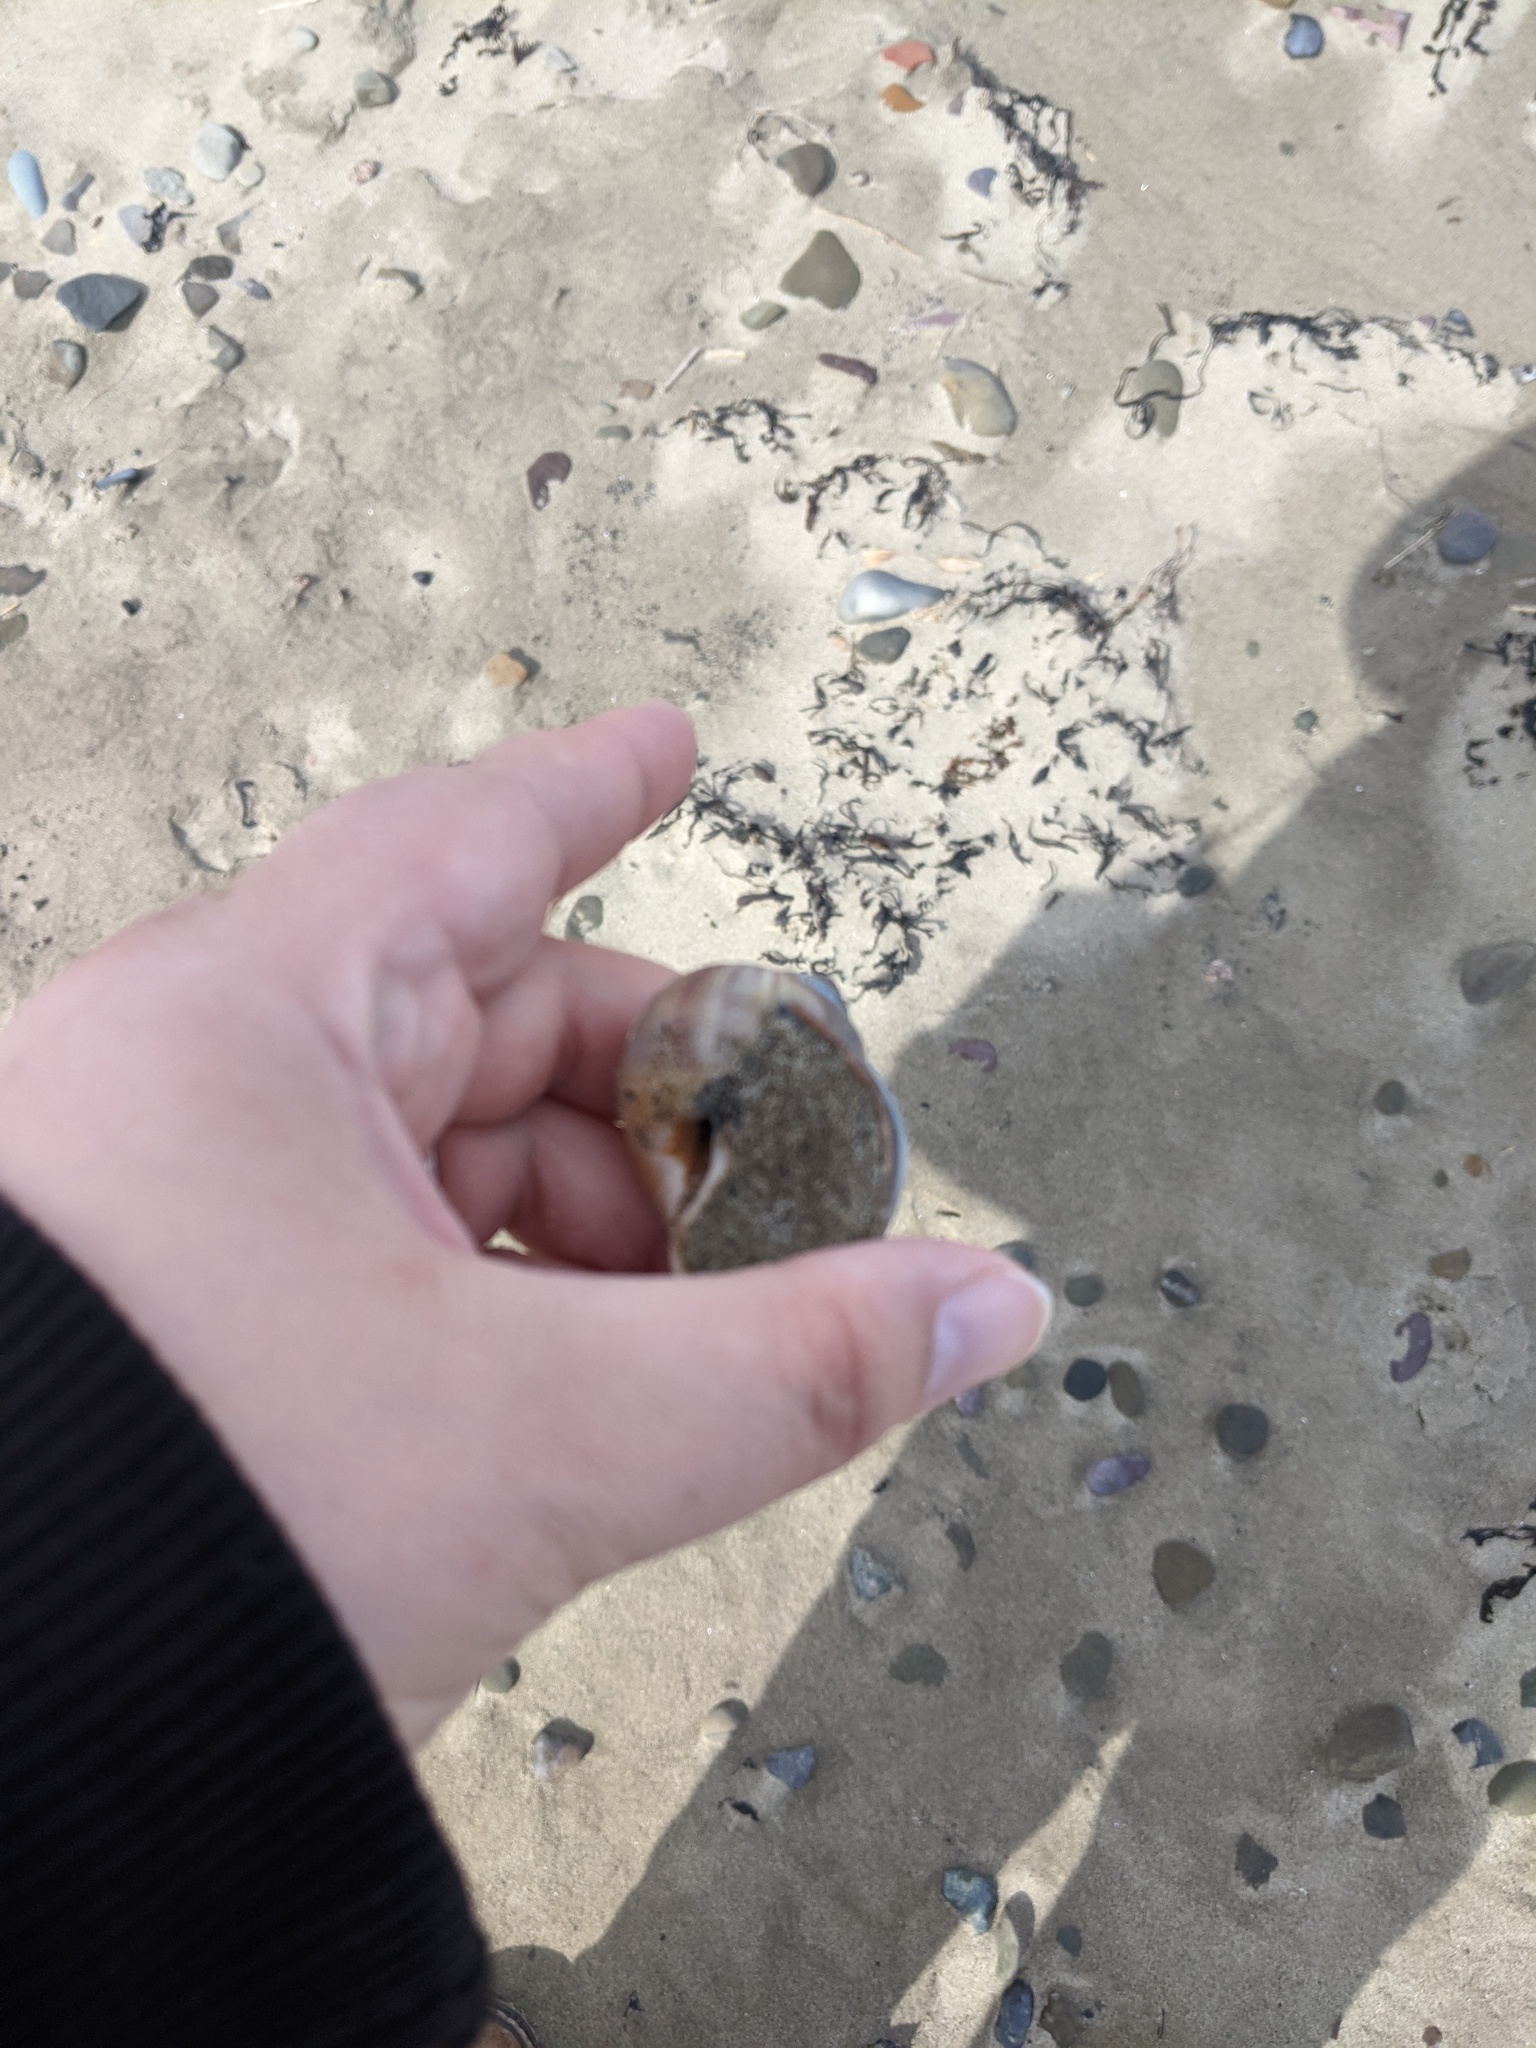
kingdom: Animalia
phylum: Mollusca
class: Gastropoda
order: Littorinimorpha
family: Naticidae
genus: Euspira
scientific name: Euspira heros
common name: Common northern moonsnail
